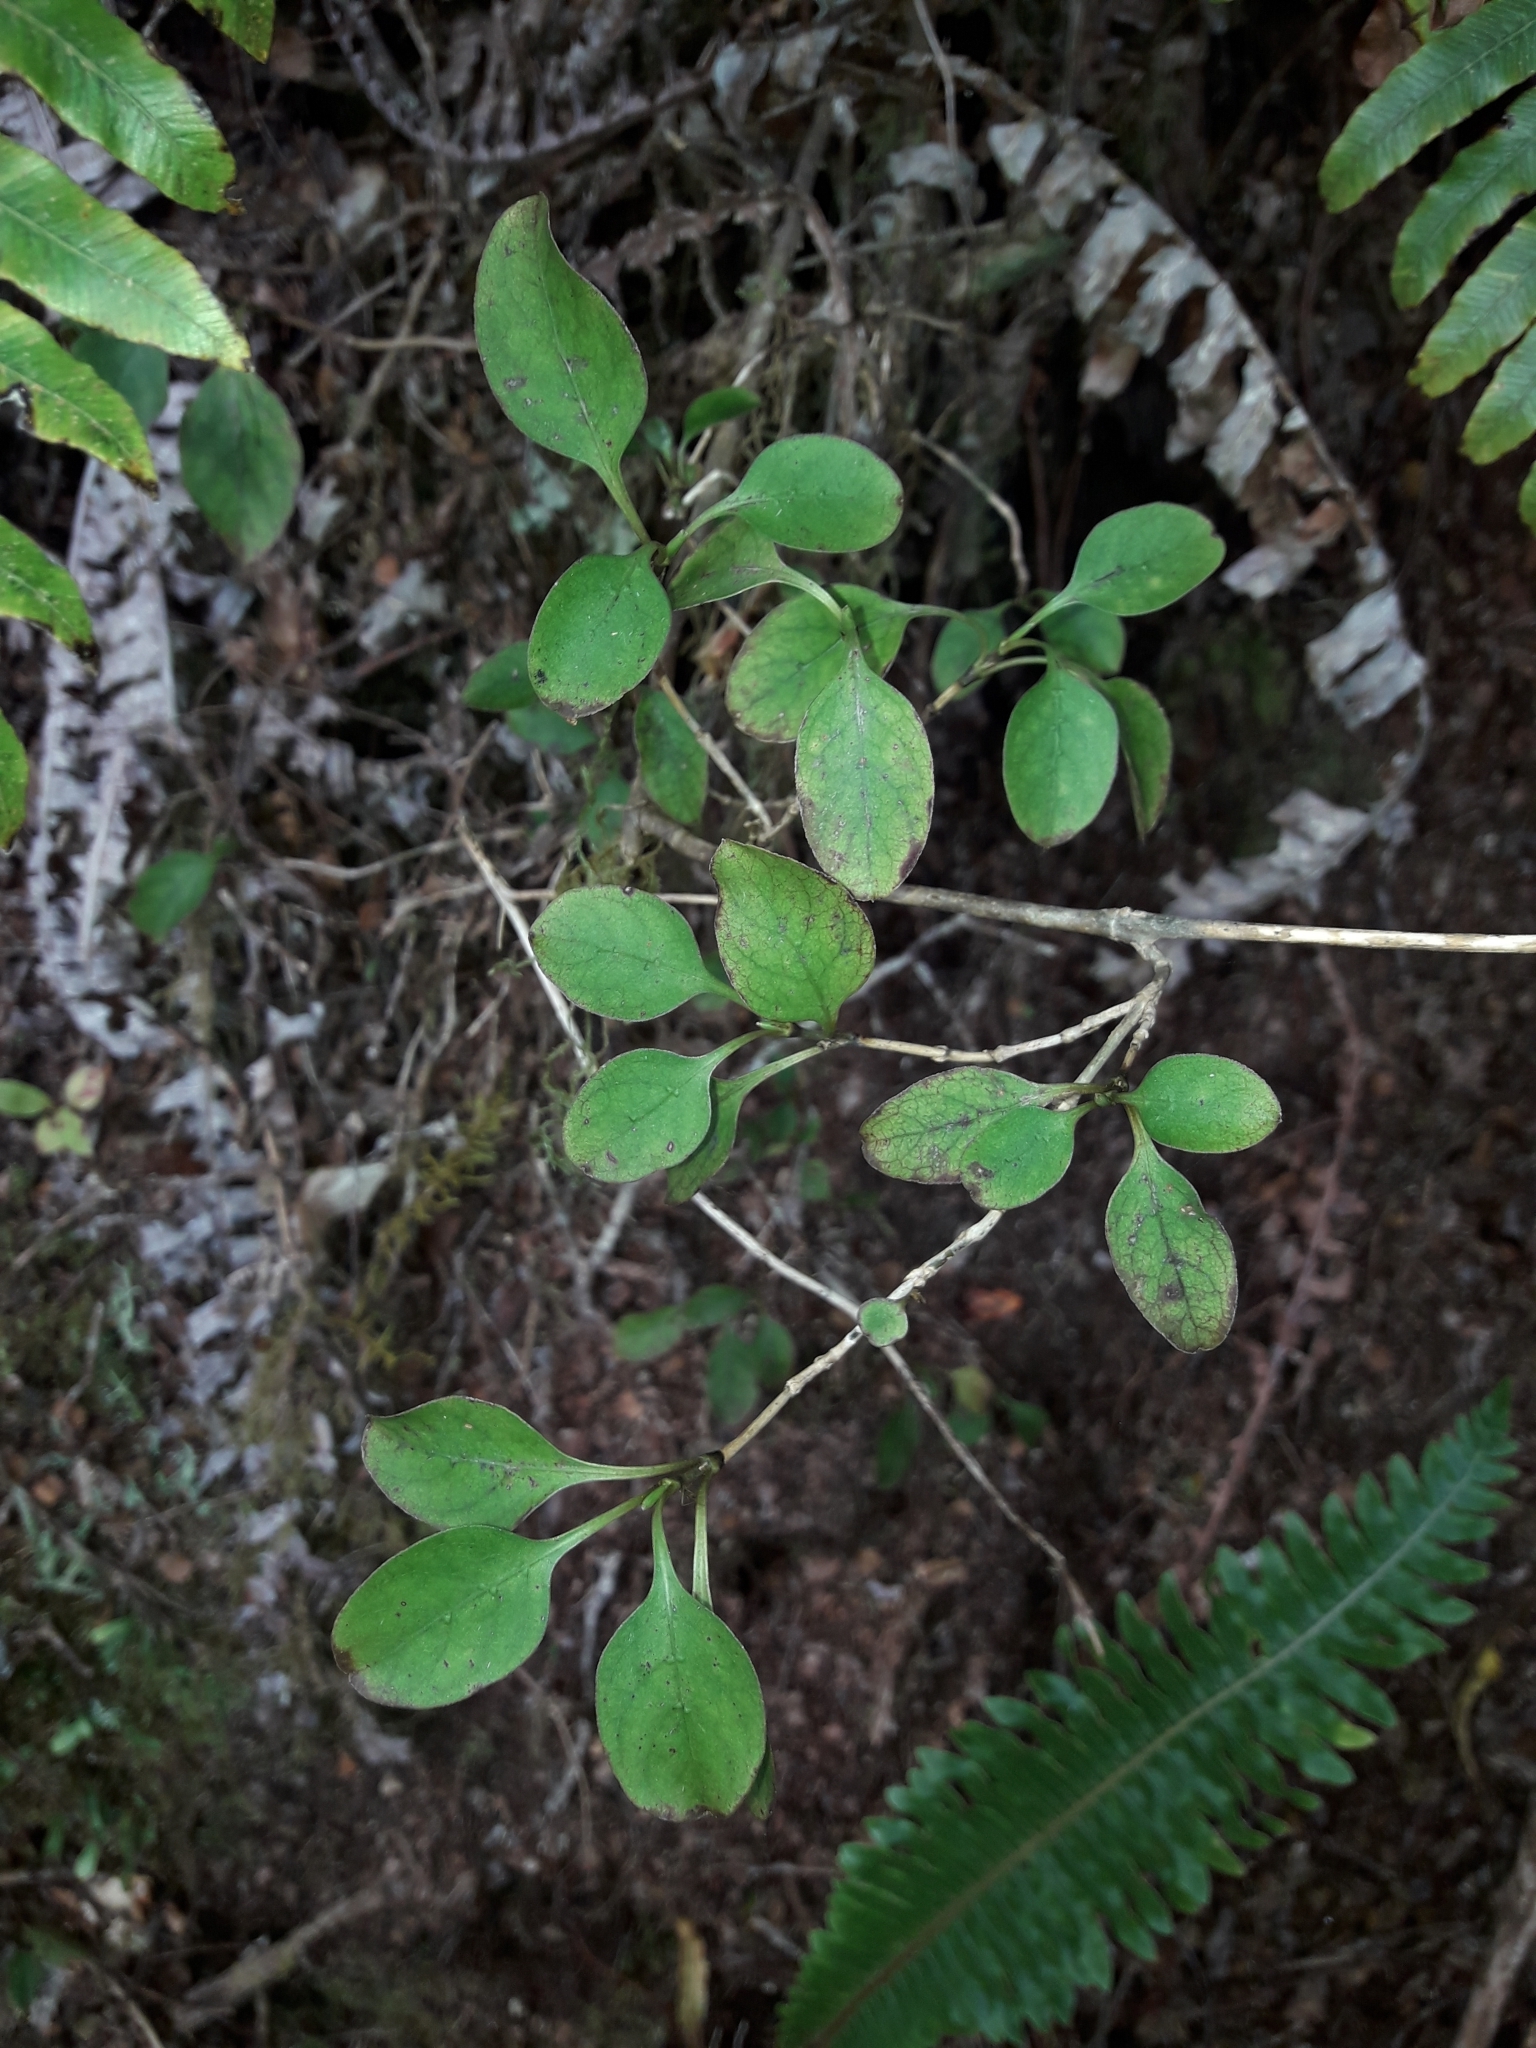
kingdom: Plantae
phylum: Tracheophyta
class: Magnoliopsida
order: Gentianales
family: Rubiaceae
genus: Coprosma
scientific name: Coprosma foetidissima
